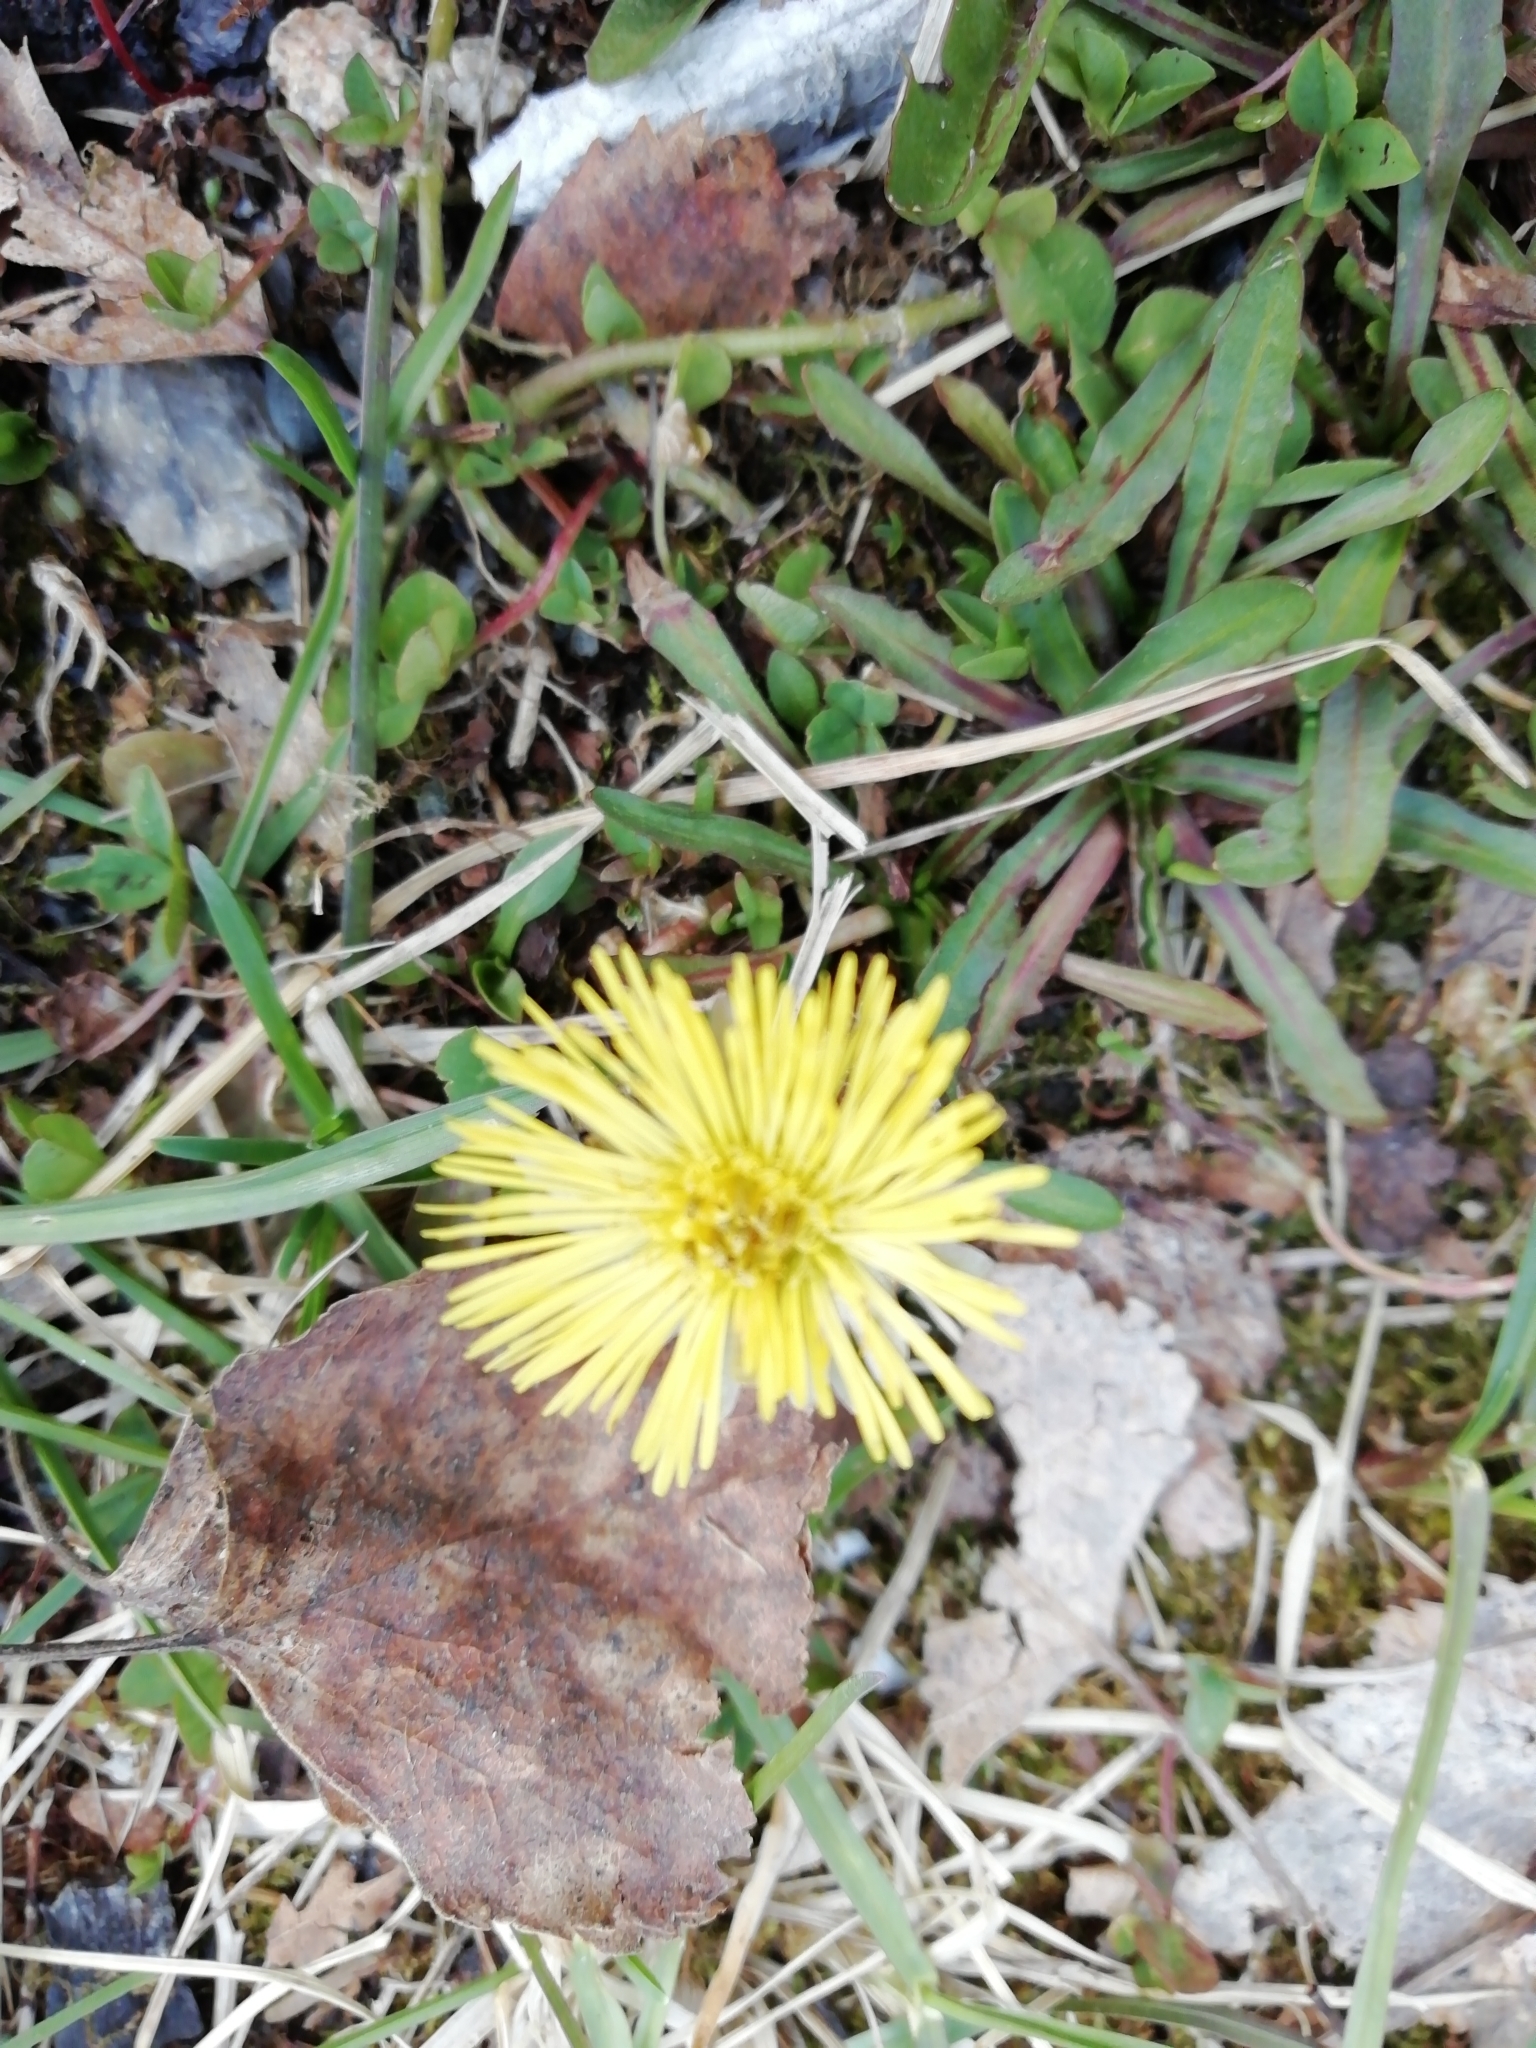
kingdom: Plantae
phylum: Tracheophyta
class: Magnoliopsida
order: Asterales
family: Asteraceae
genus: Tussilago
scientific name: Tussilago farfara
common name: Coltsfoot
